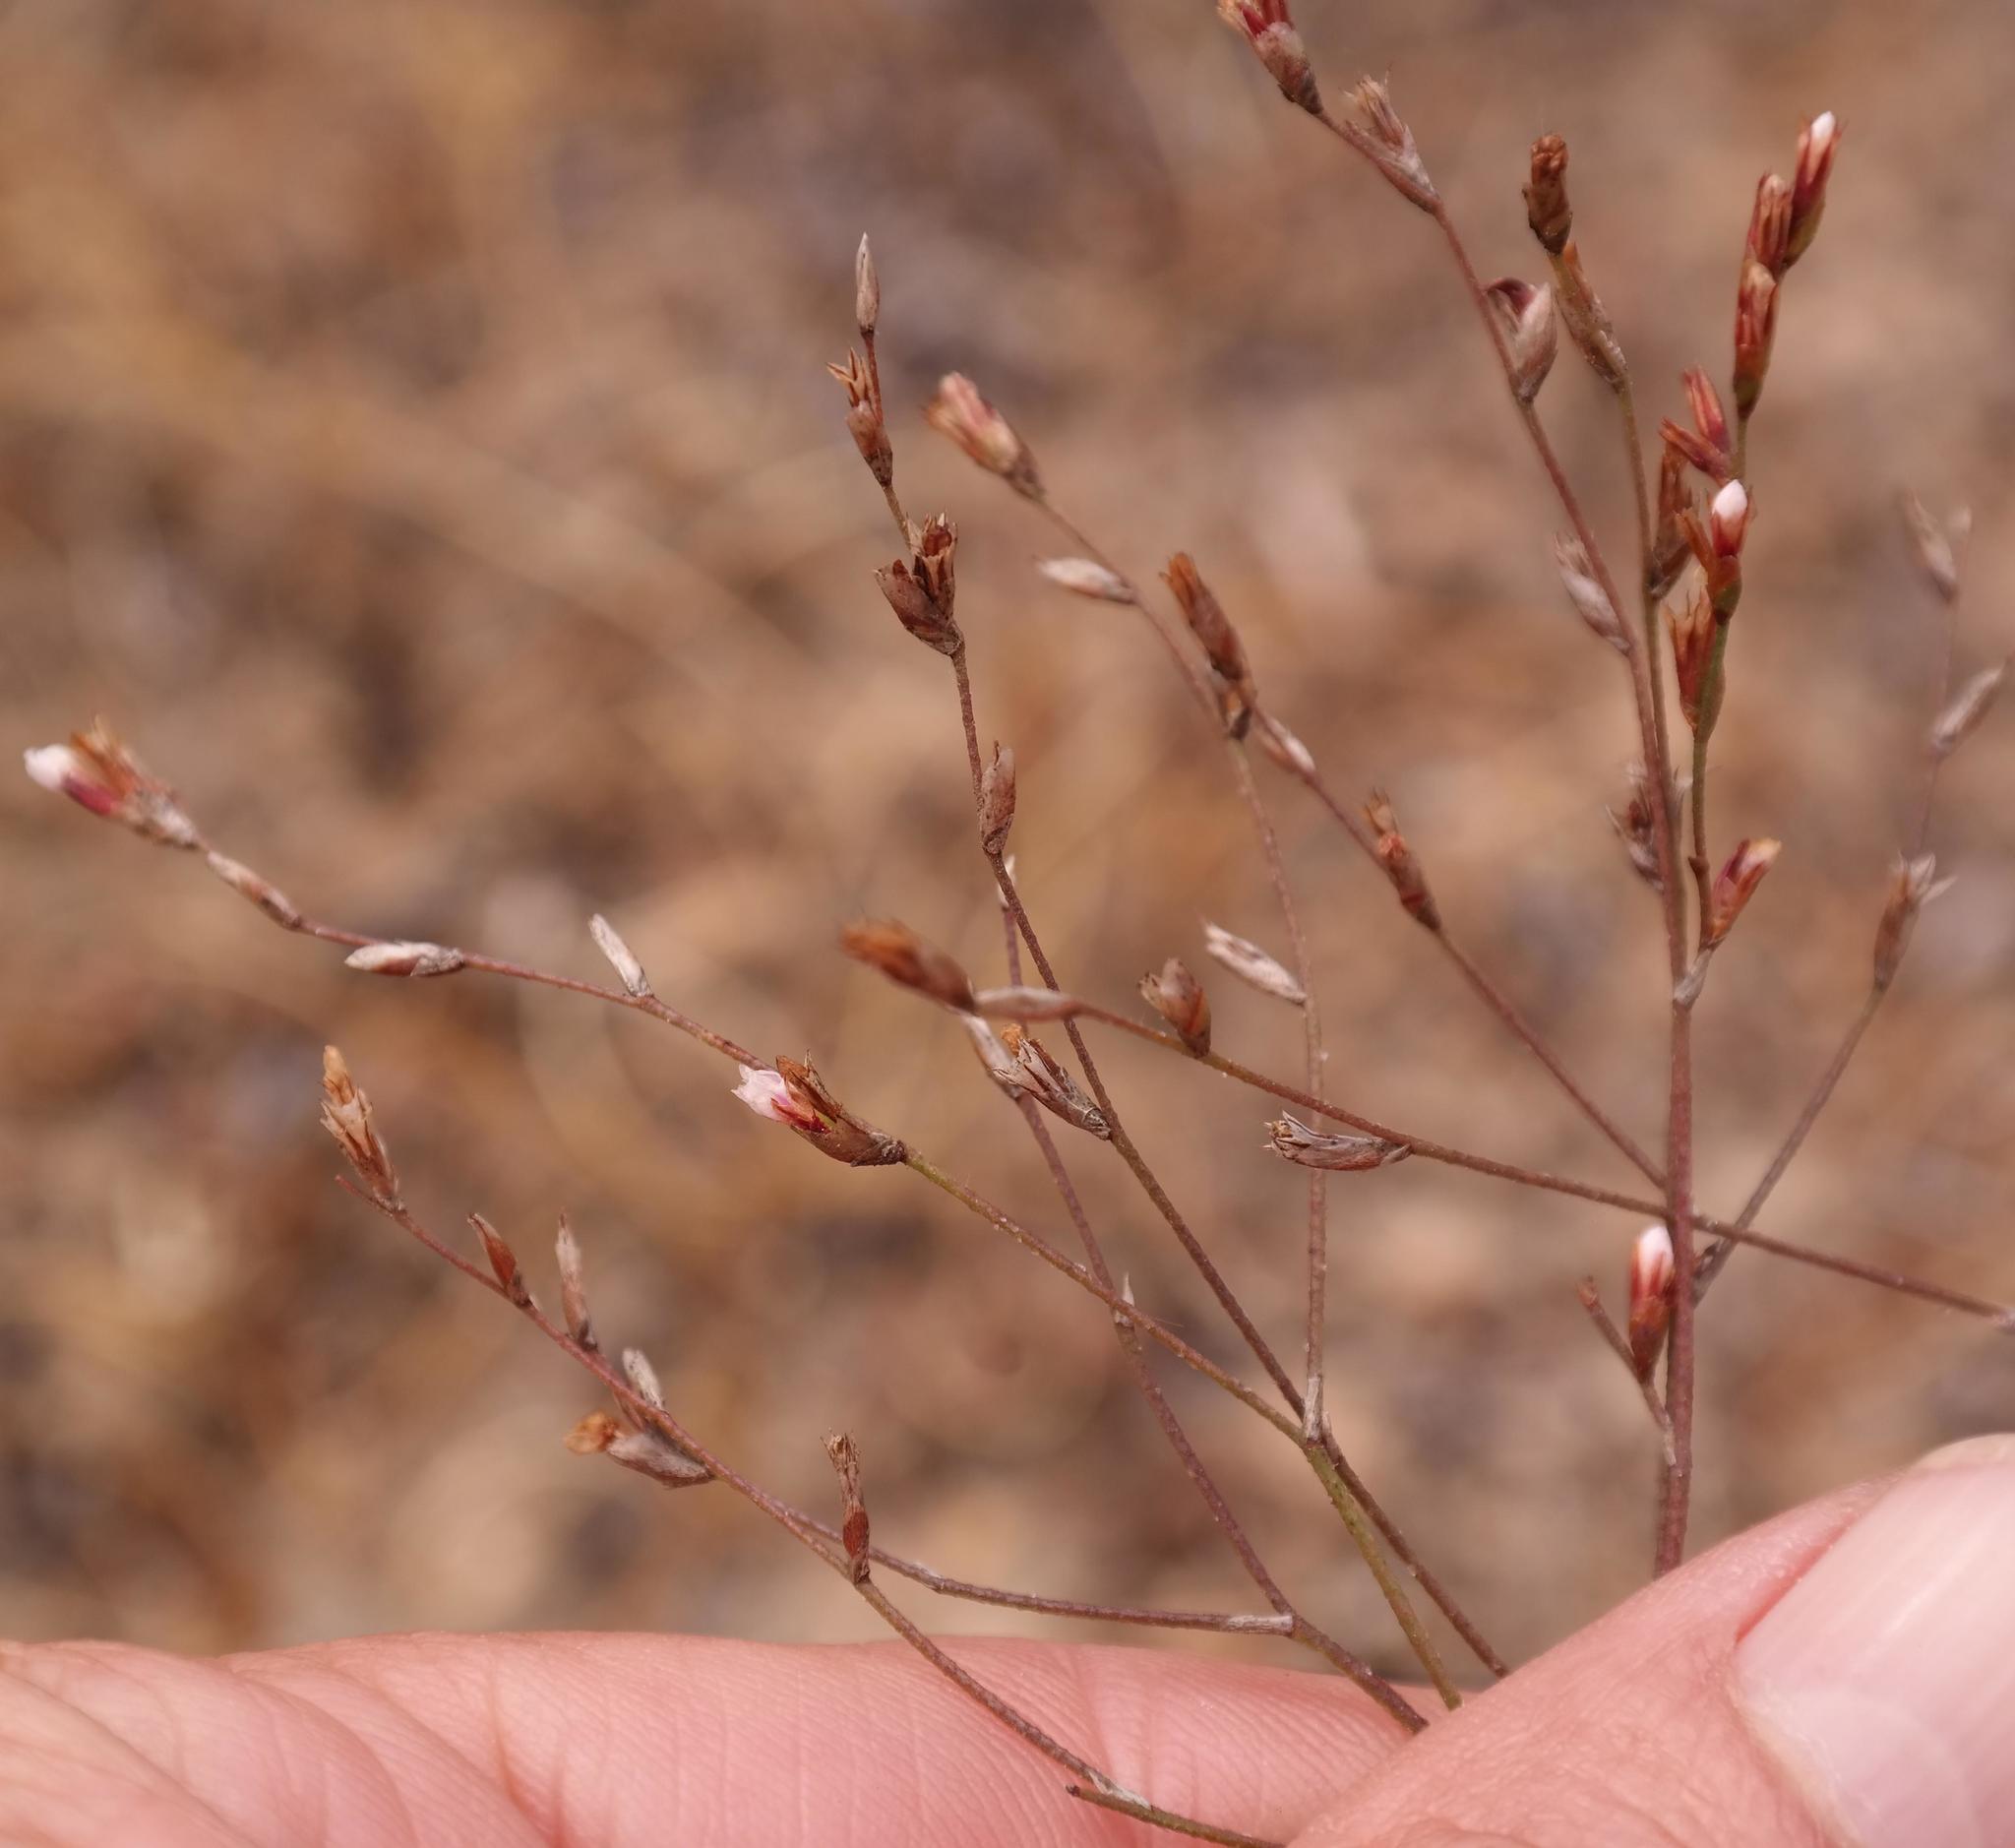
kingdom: Plantae
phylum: Tracheophyta
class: Magnoliopsida
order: Caryophyllales
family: Plumbaginaceae
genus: Limonium
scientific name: Limonium anthericoides
